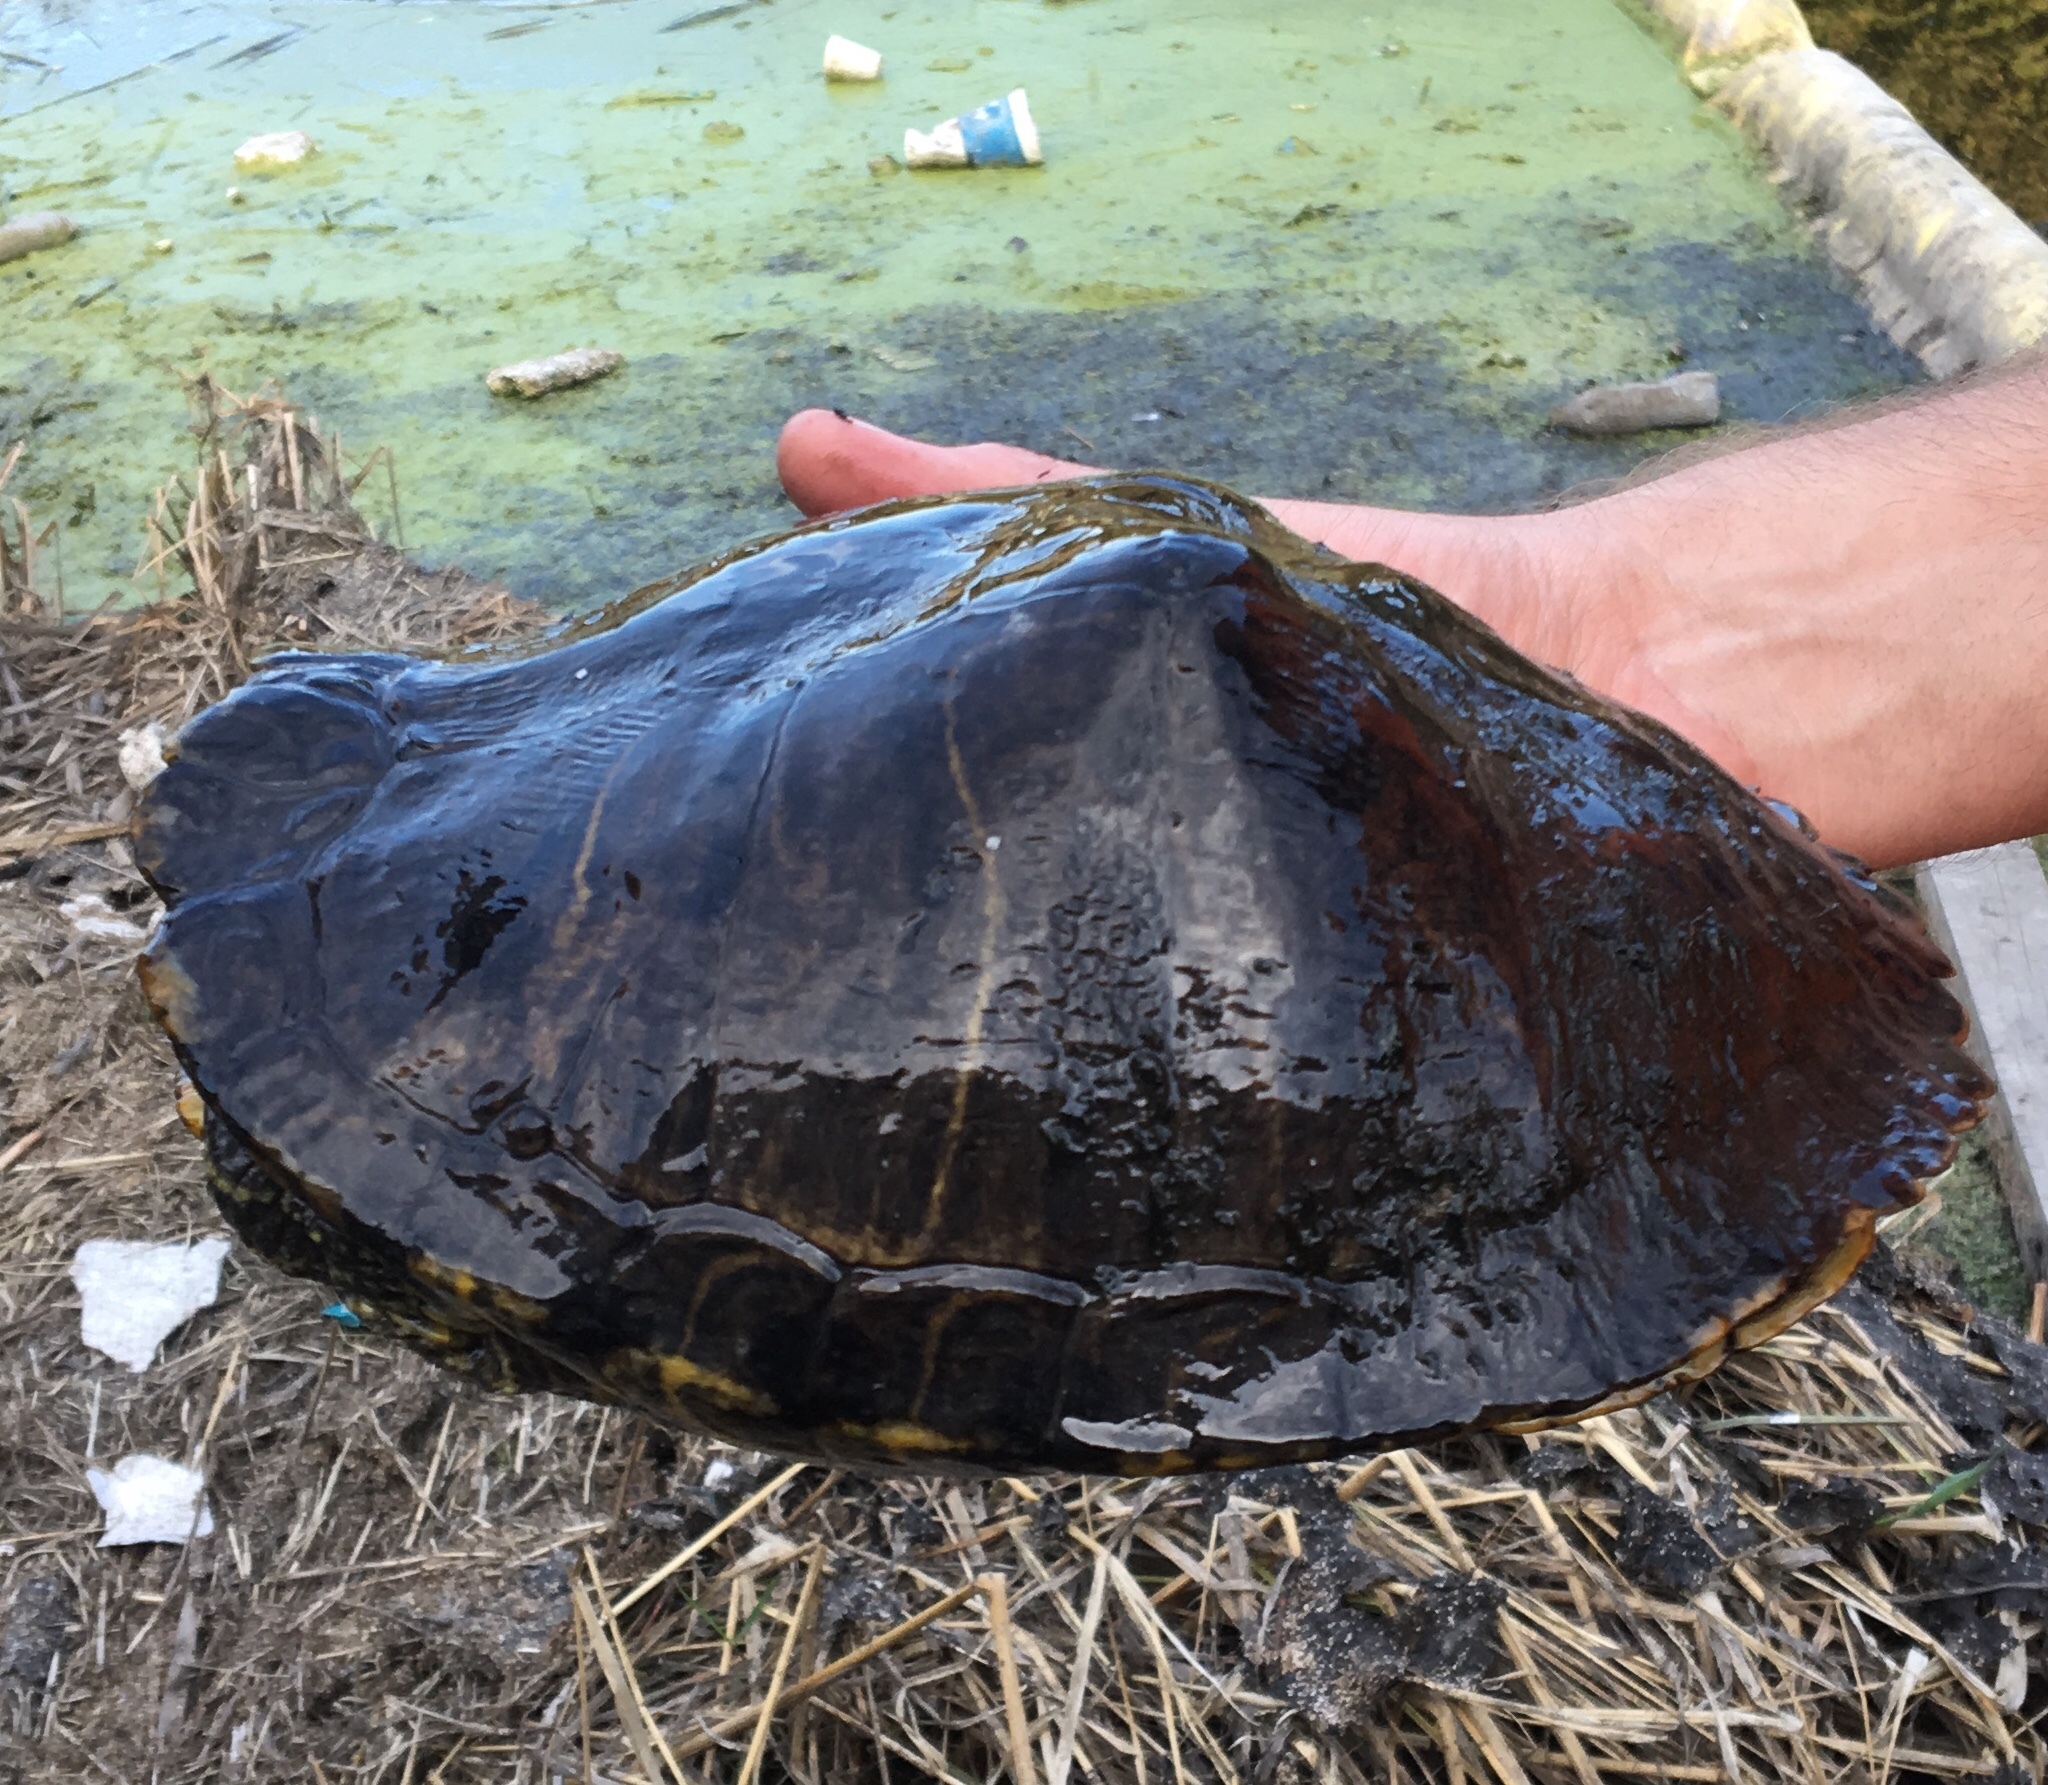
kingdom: Animalia
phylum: Chordata
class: Testudines
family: Emydidae
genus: Trachemys
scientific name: Trachemys scripta
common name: Slider
